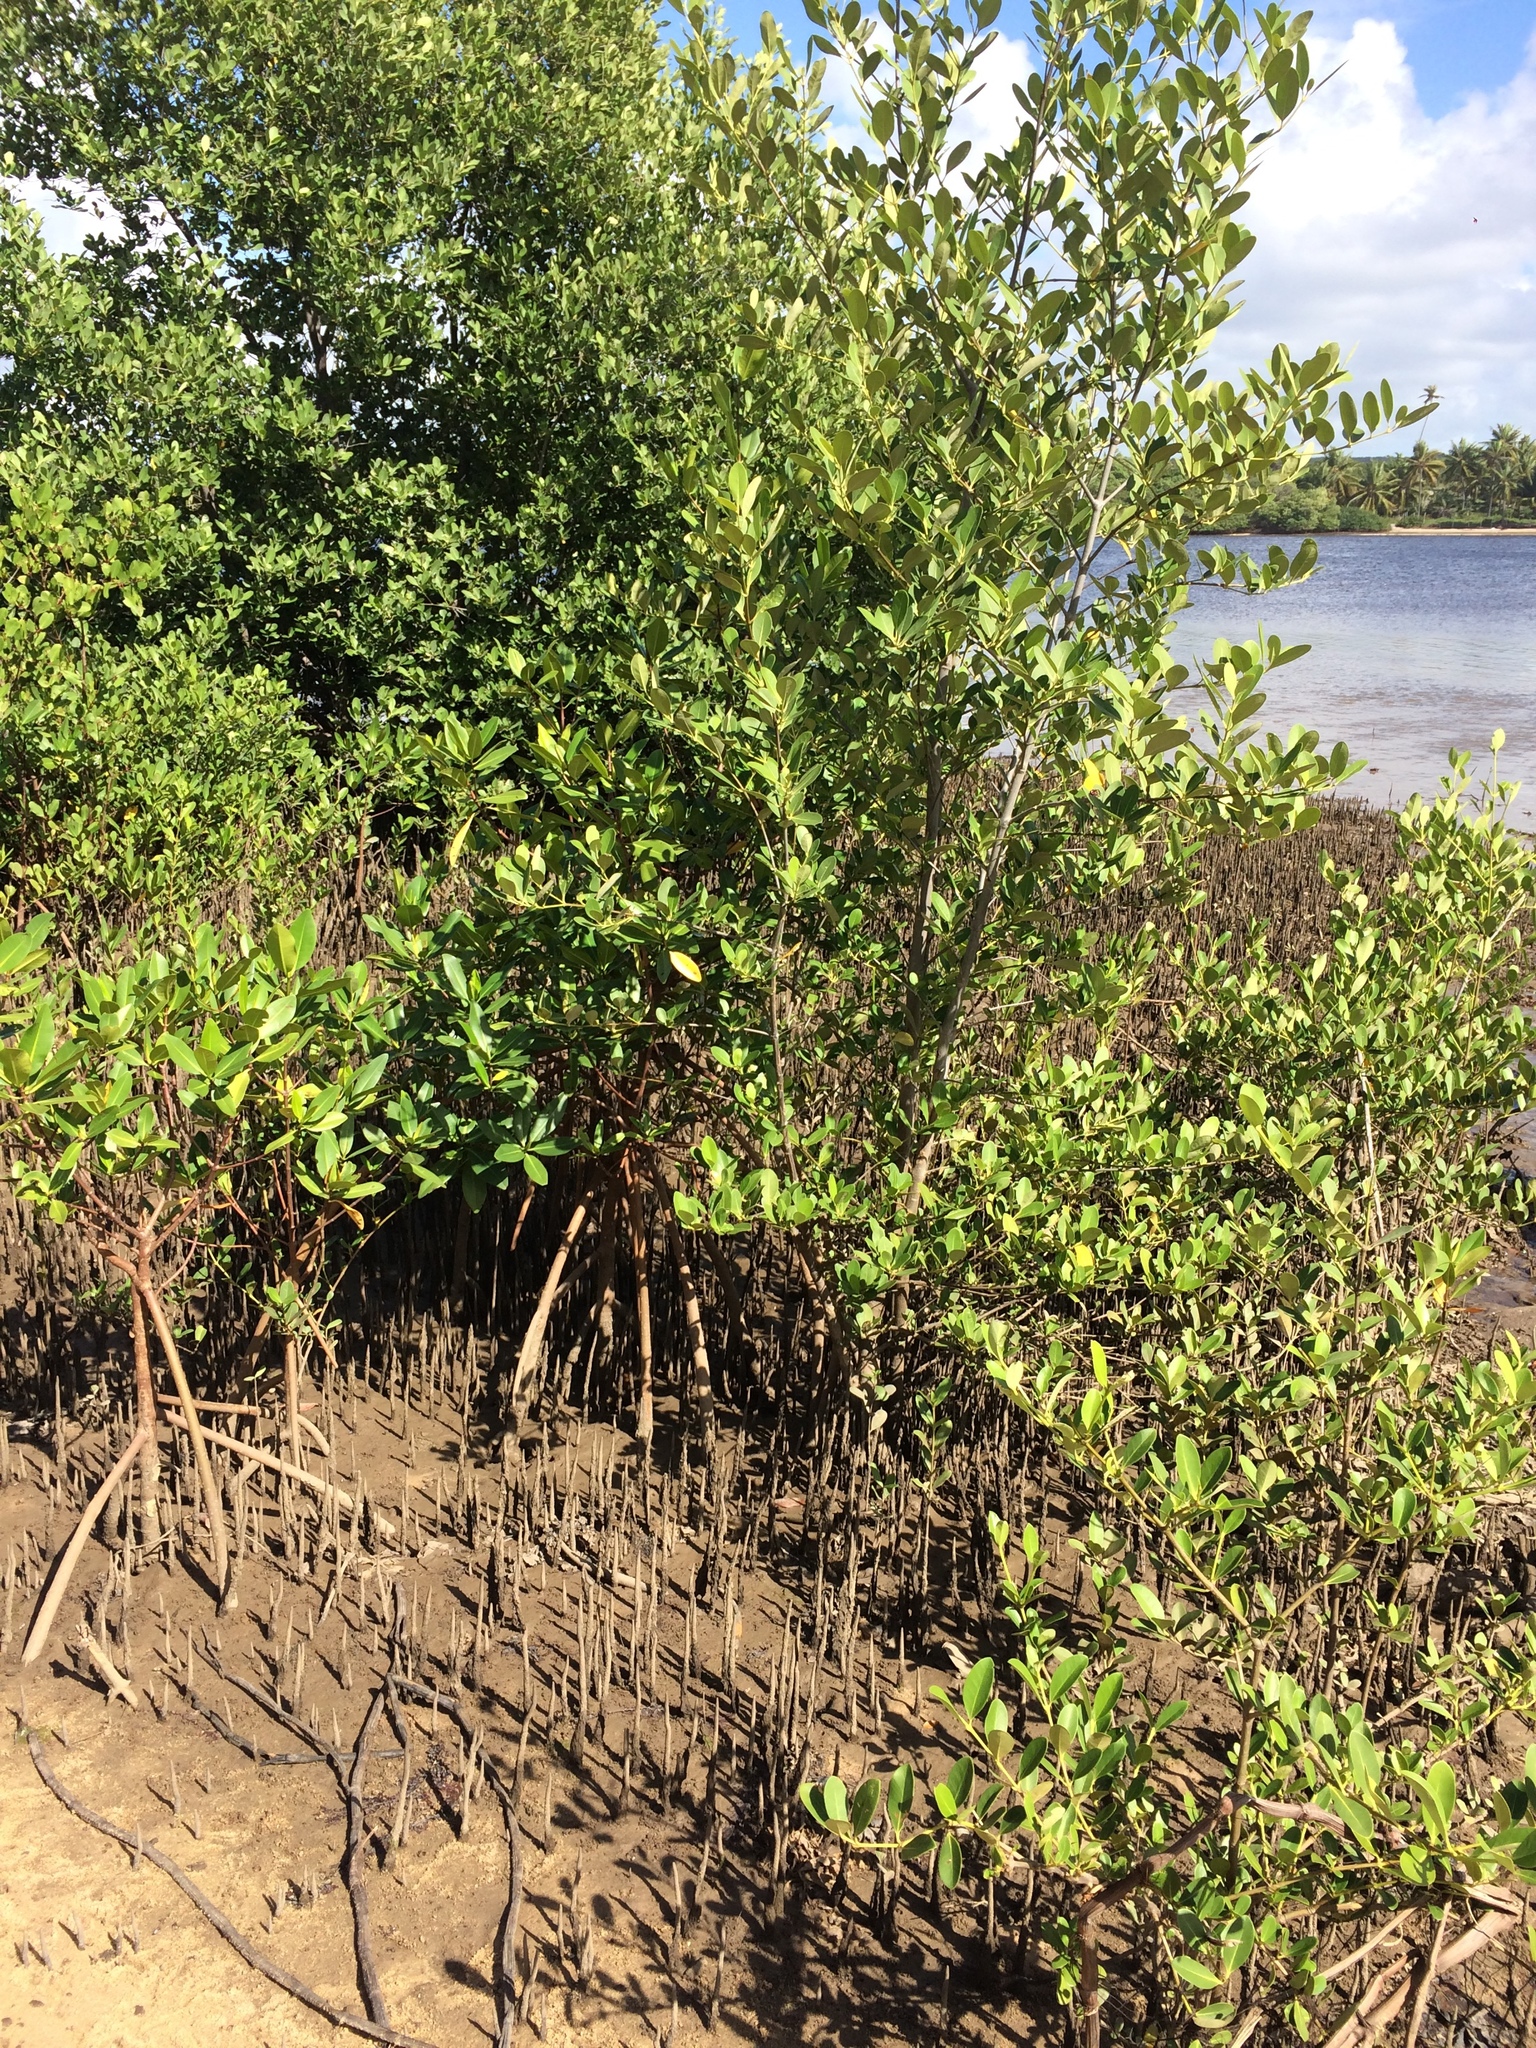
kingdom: Plantae
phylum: Tracheophyta
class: Magnoliopsida
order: Lamiales
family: Acanthaceae
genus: Avicennia
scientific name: Avicennia schaueriana
